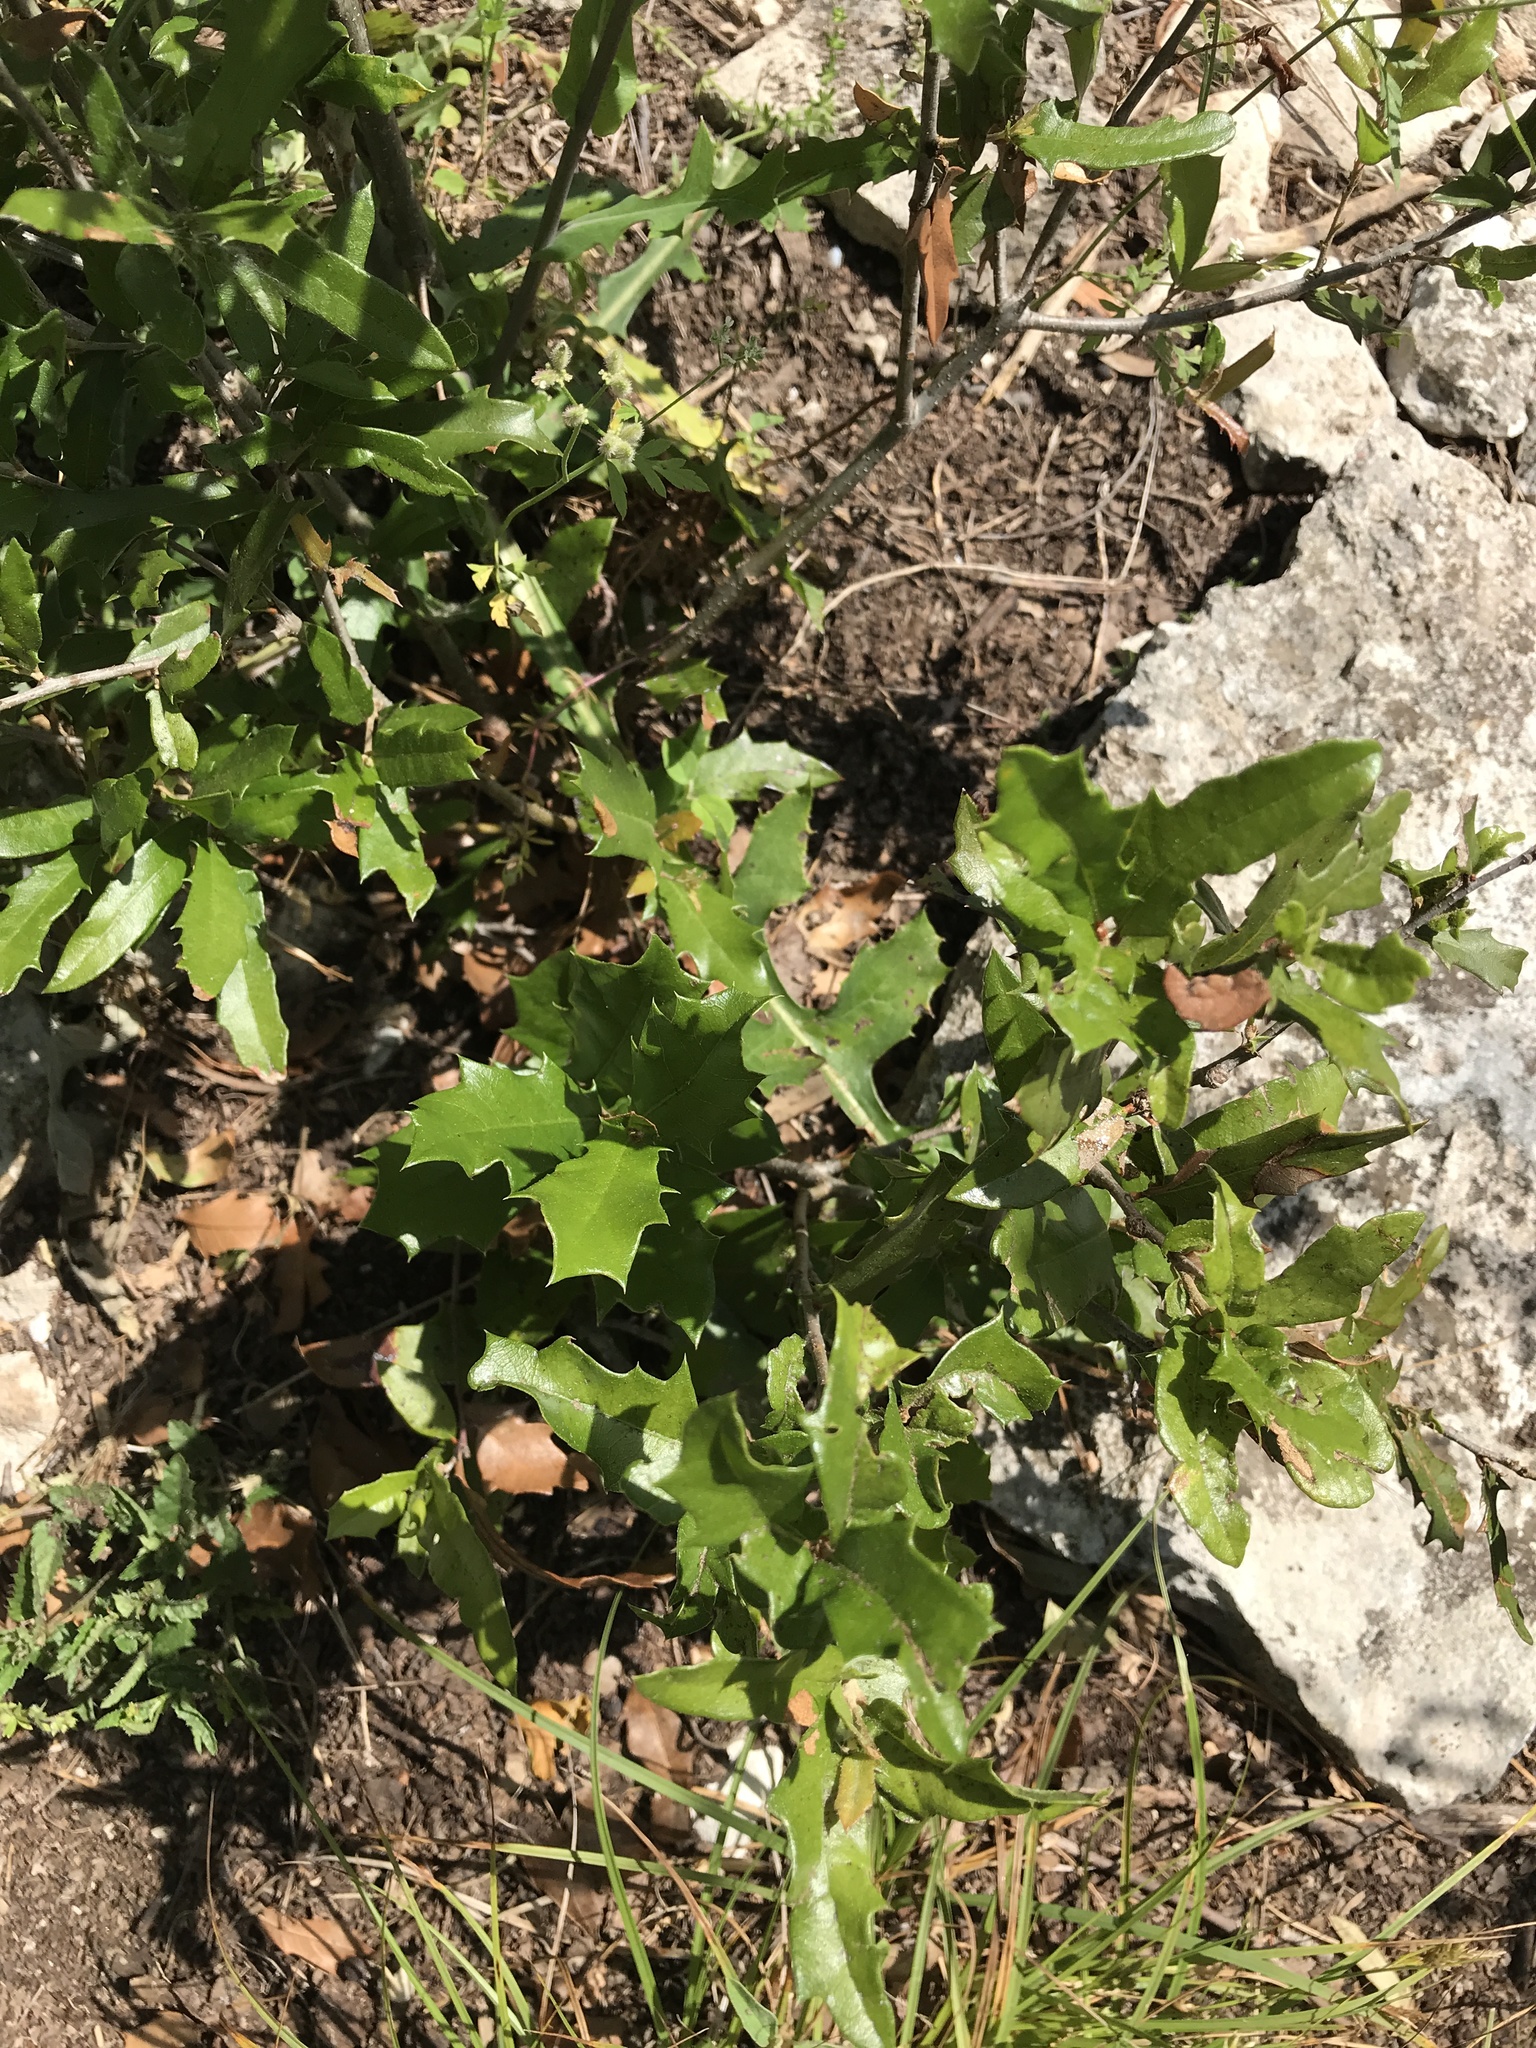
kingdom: Plantae
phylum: Tracheophyta
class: Magnoliopsida
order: Fagales
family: Fagaceae
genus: Quercus
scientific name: Quercus fusiformis
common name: Texas live oak
